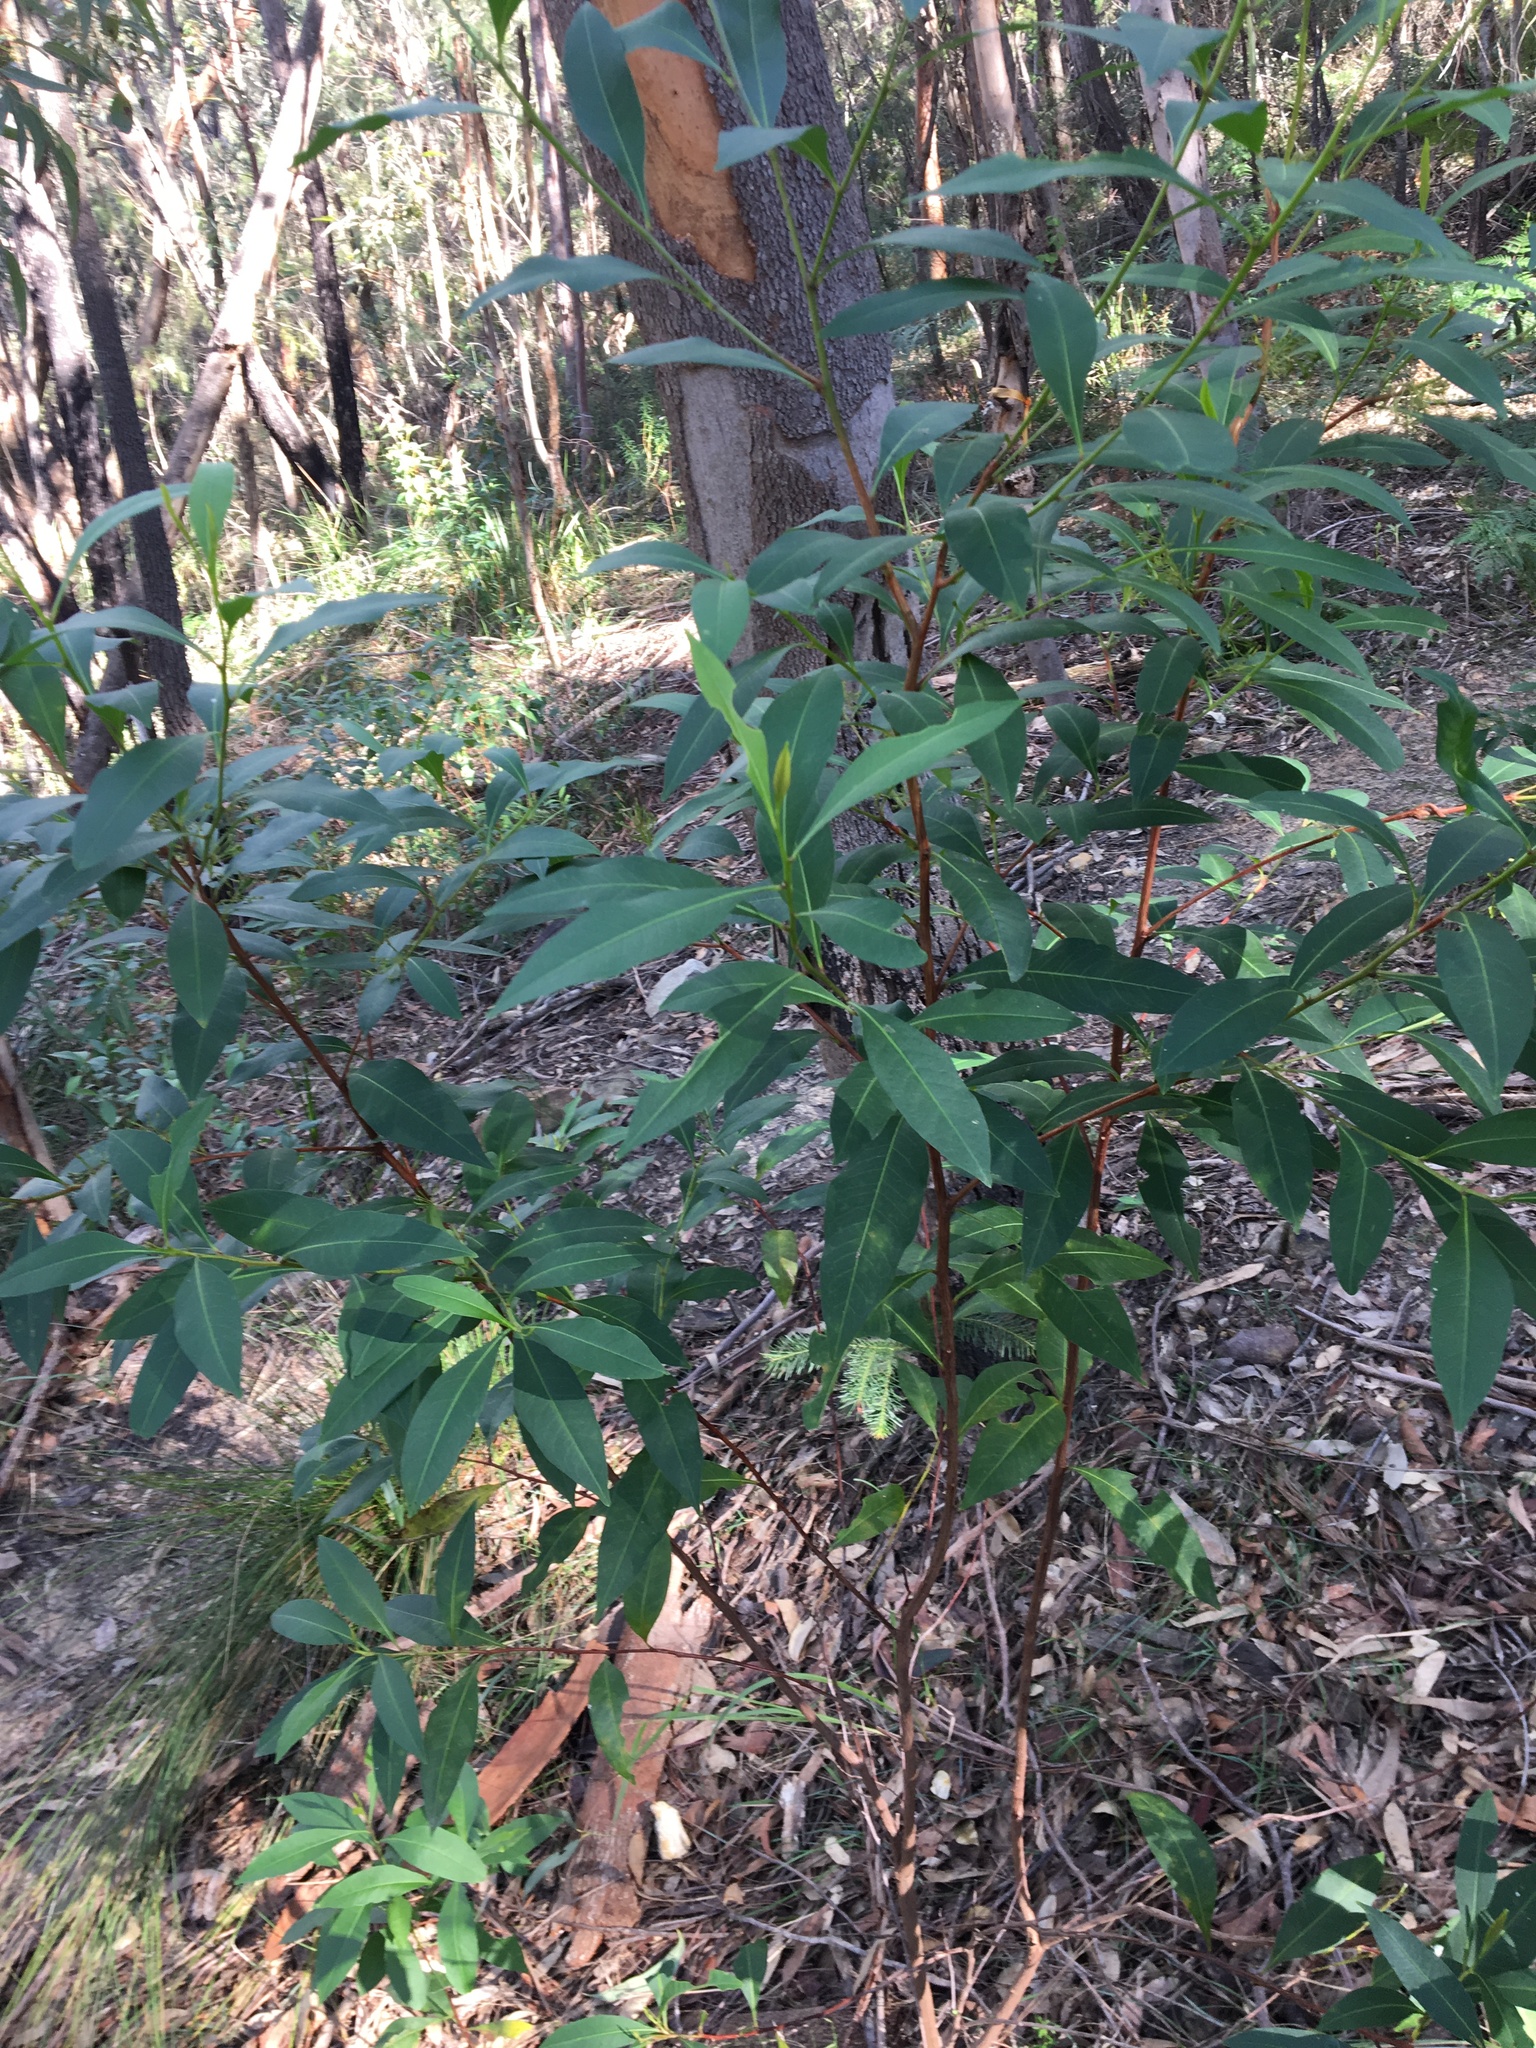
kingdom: Plantae
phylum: Tracheophyta
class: Magnoliopsida
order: Sapindales
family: Sapindaceae
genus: Dodonaea
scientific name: Dodonaea triquetra
